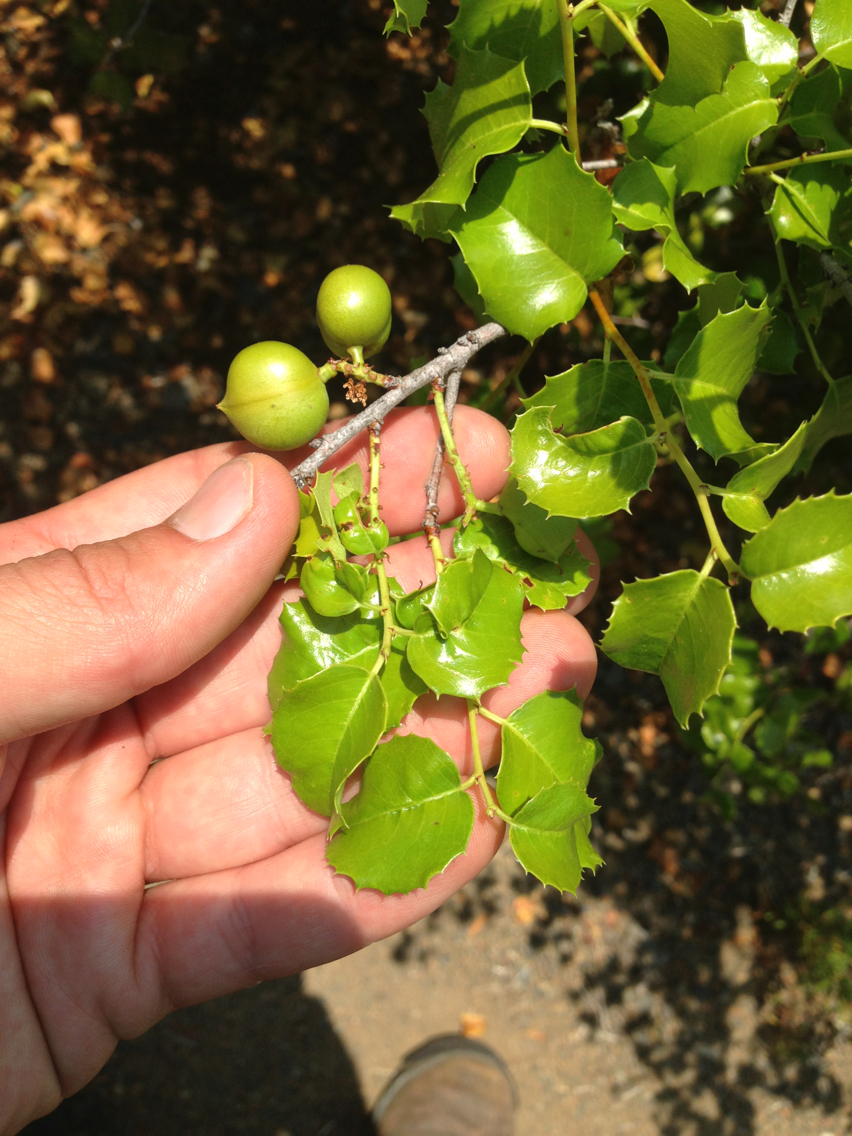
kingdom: Plantae
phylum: Tracheophyta
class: Magnoliopsida
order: Rosales
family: Rosaceae
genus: Prunus
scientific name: Prunus ilicifolia
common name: Hollyleaf cherry
